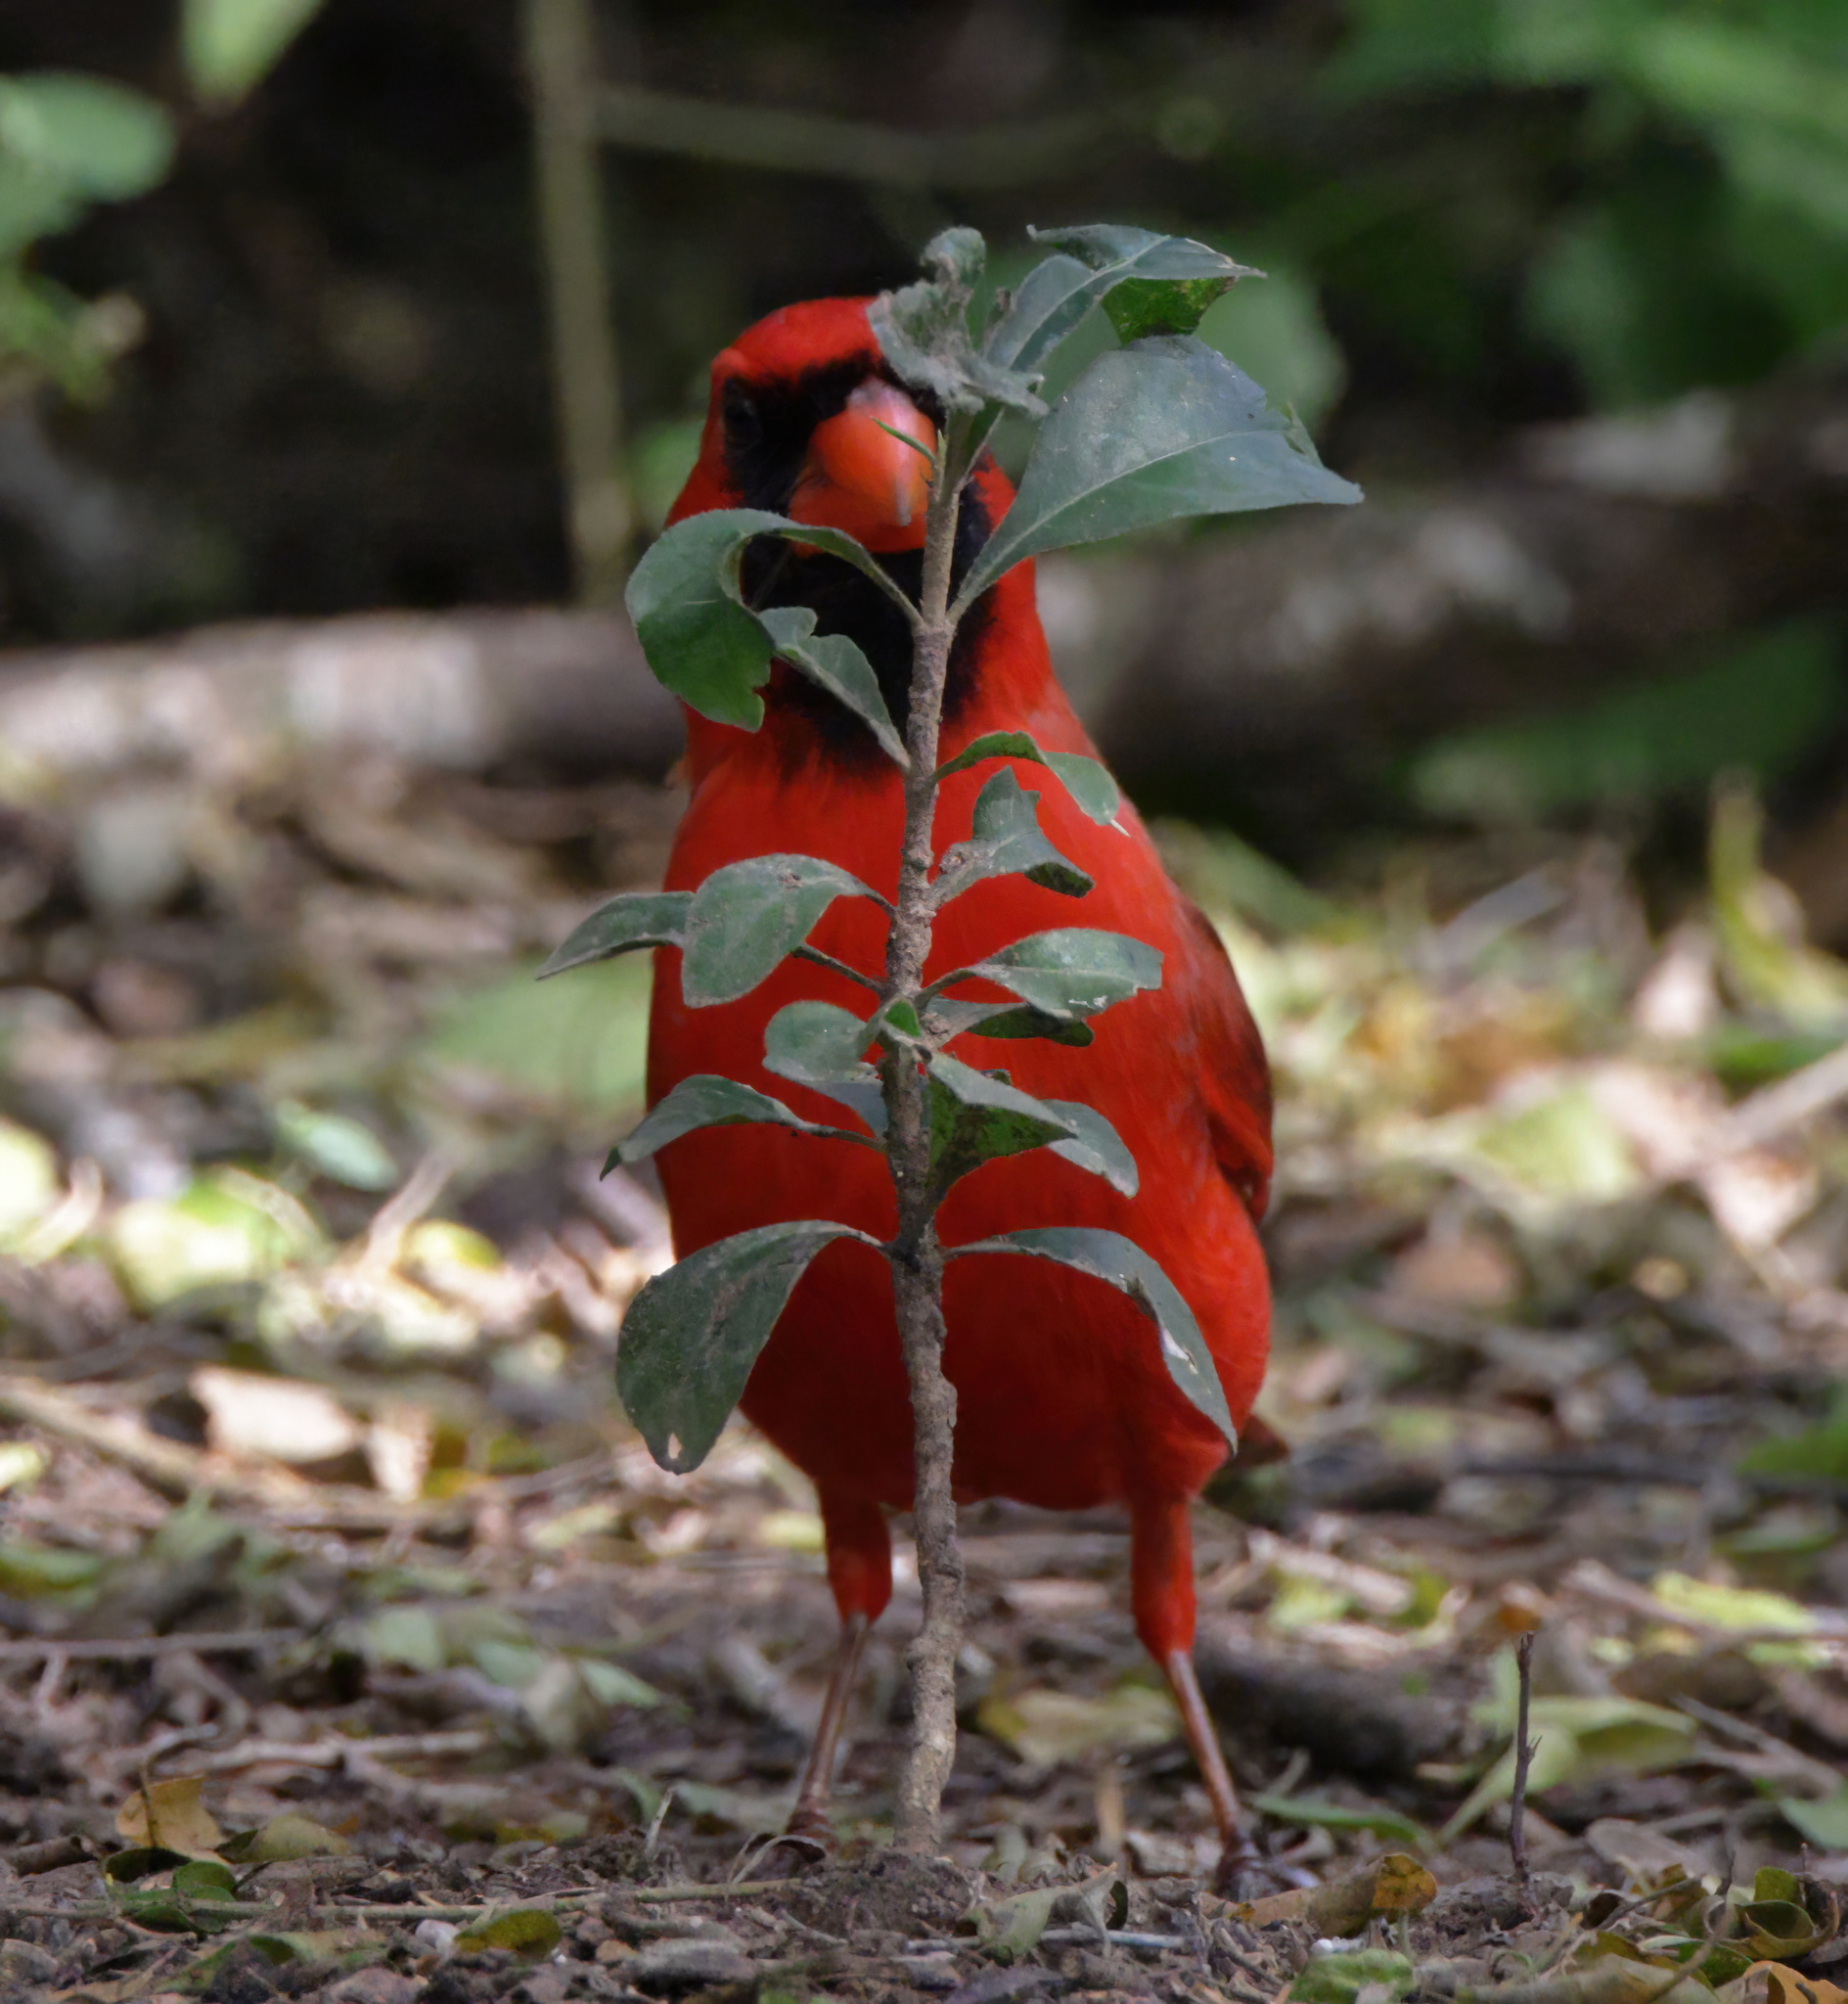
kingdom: Animalia
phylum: Chordata
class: Aves
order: Passeriformes
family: Cardinalidae
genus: Cardinalis
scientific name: Cardinalis cardinalis
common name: Northern cardinal
